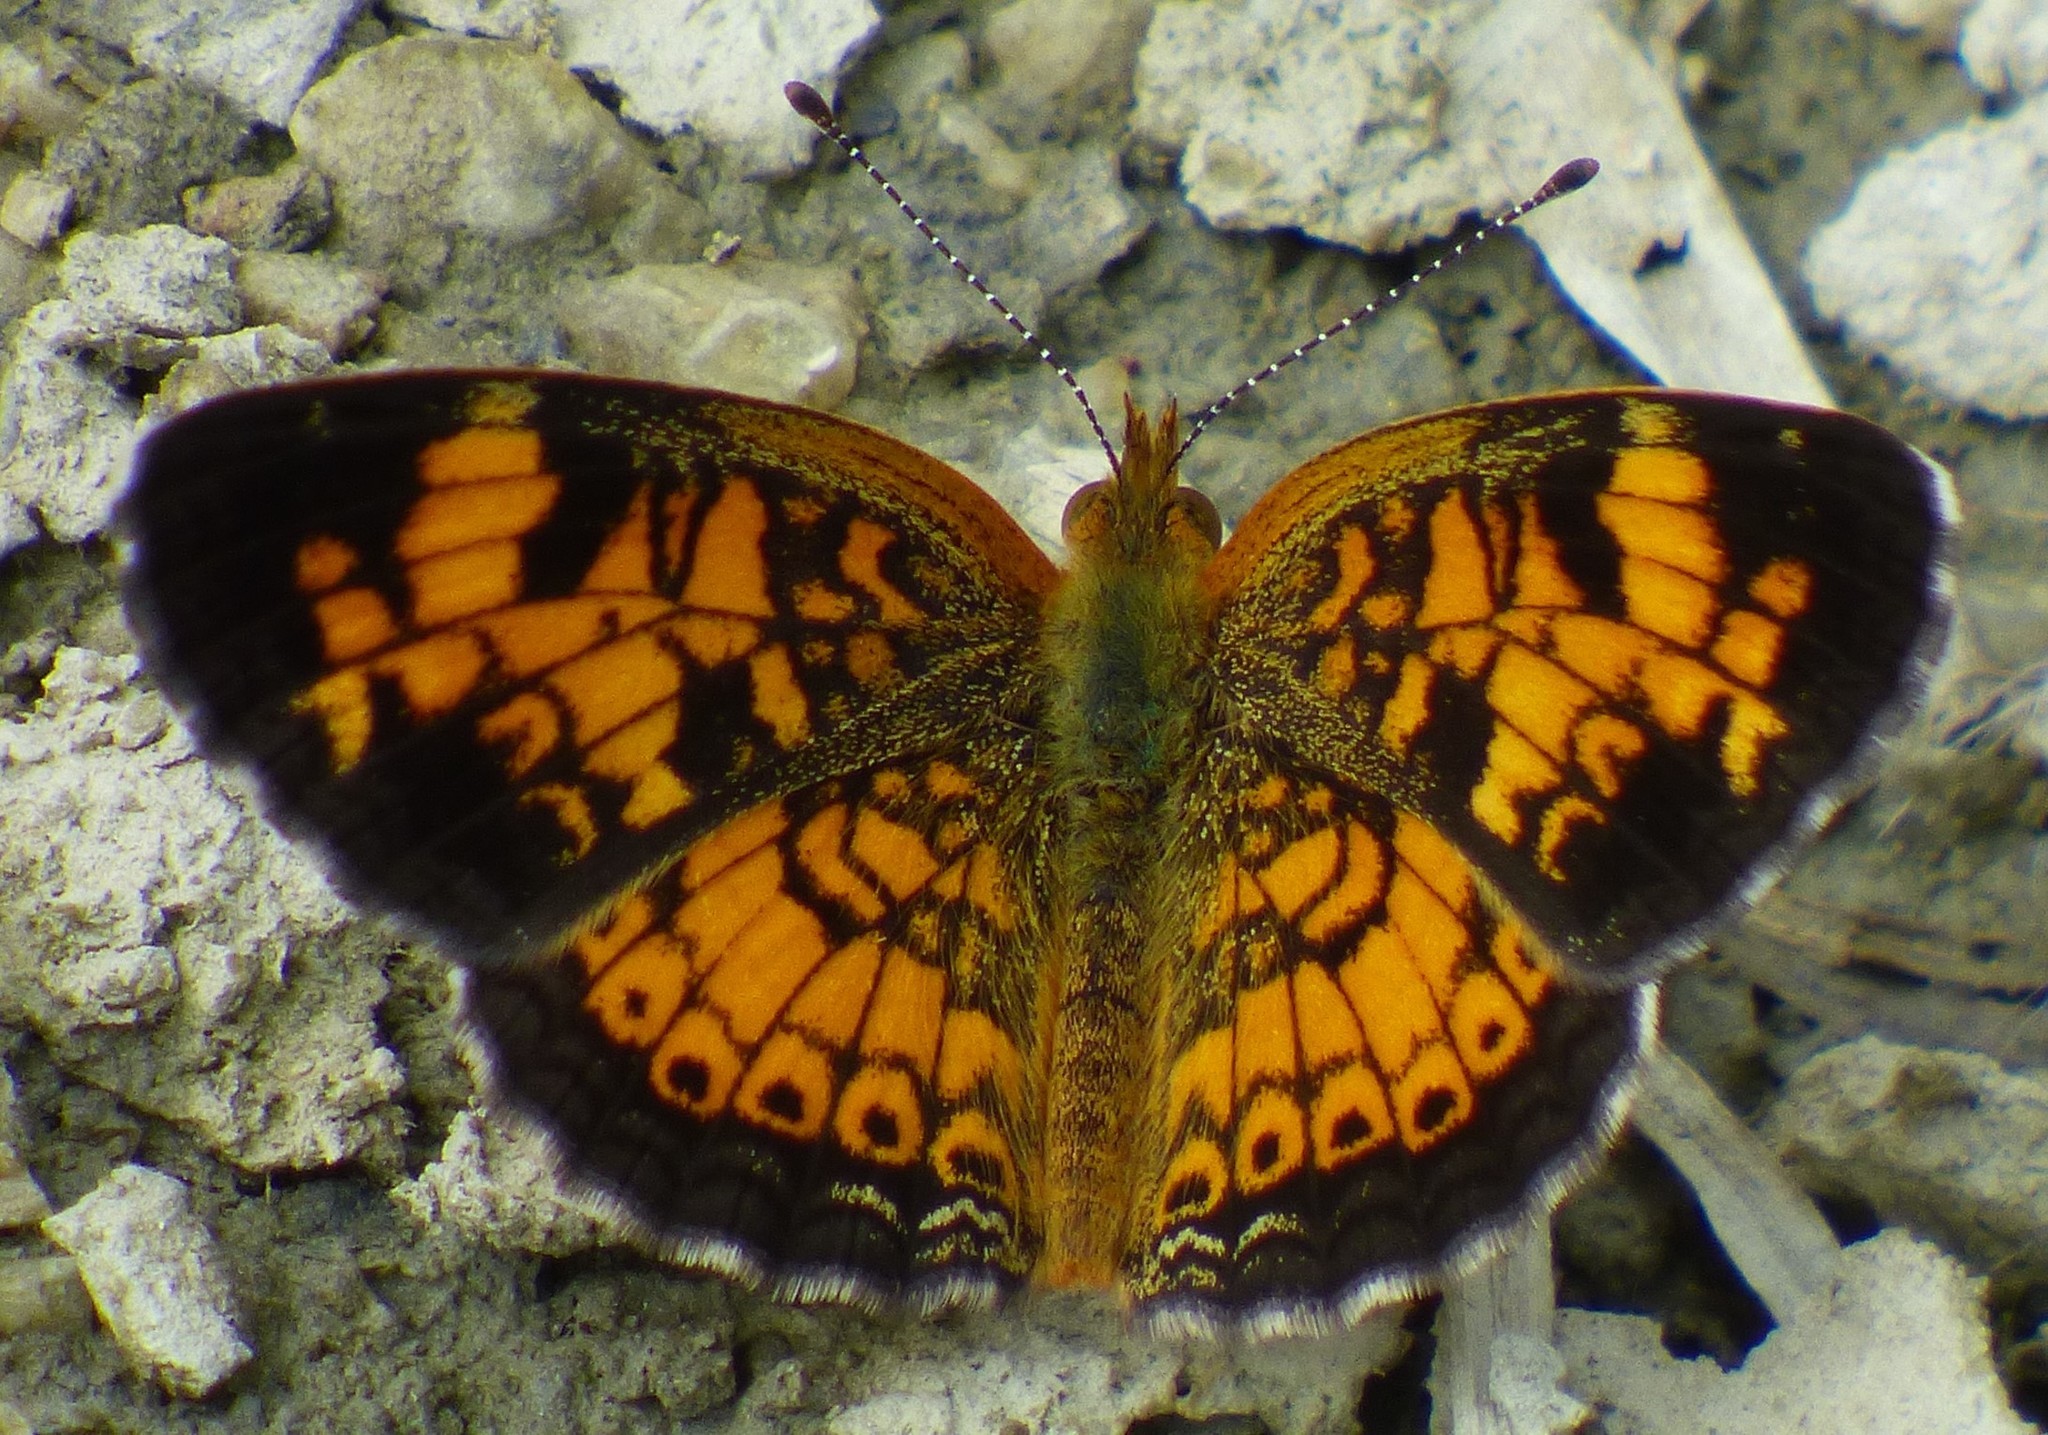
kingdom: Animalia
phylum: Arthropoda
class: Insecta
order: Lepidoptera
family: Nymphalidae
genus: Phyciodes
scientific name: Phyciodes tharos
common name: Pearl crescent
